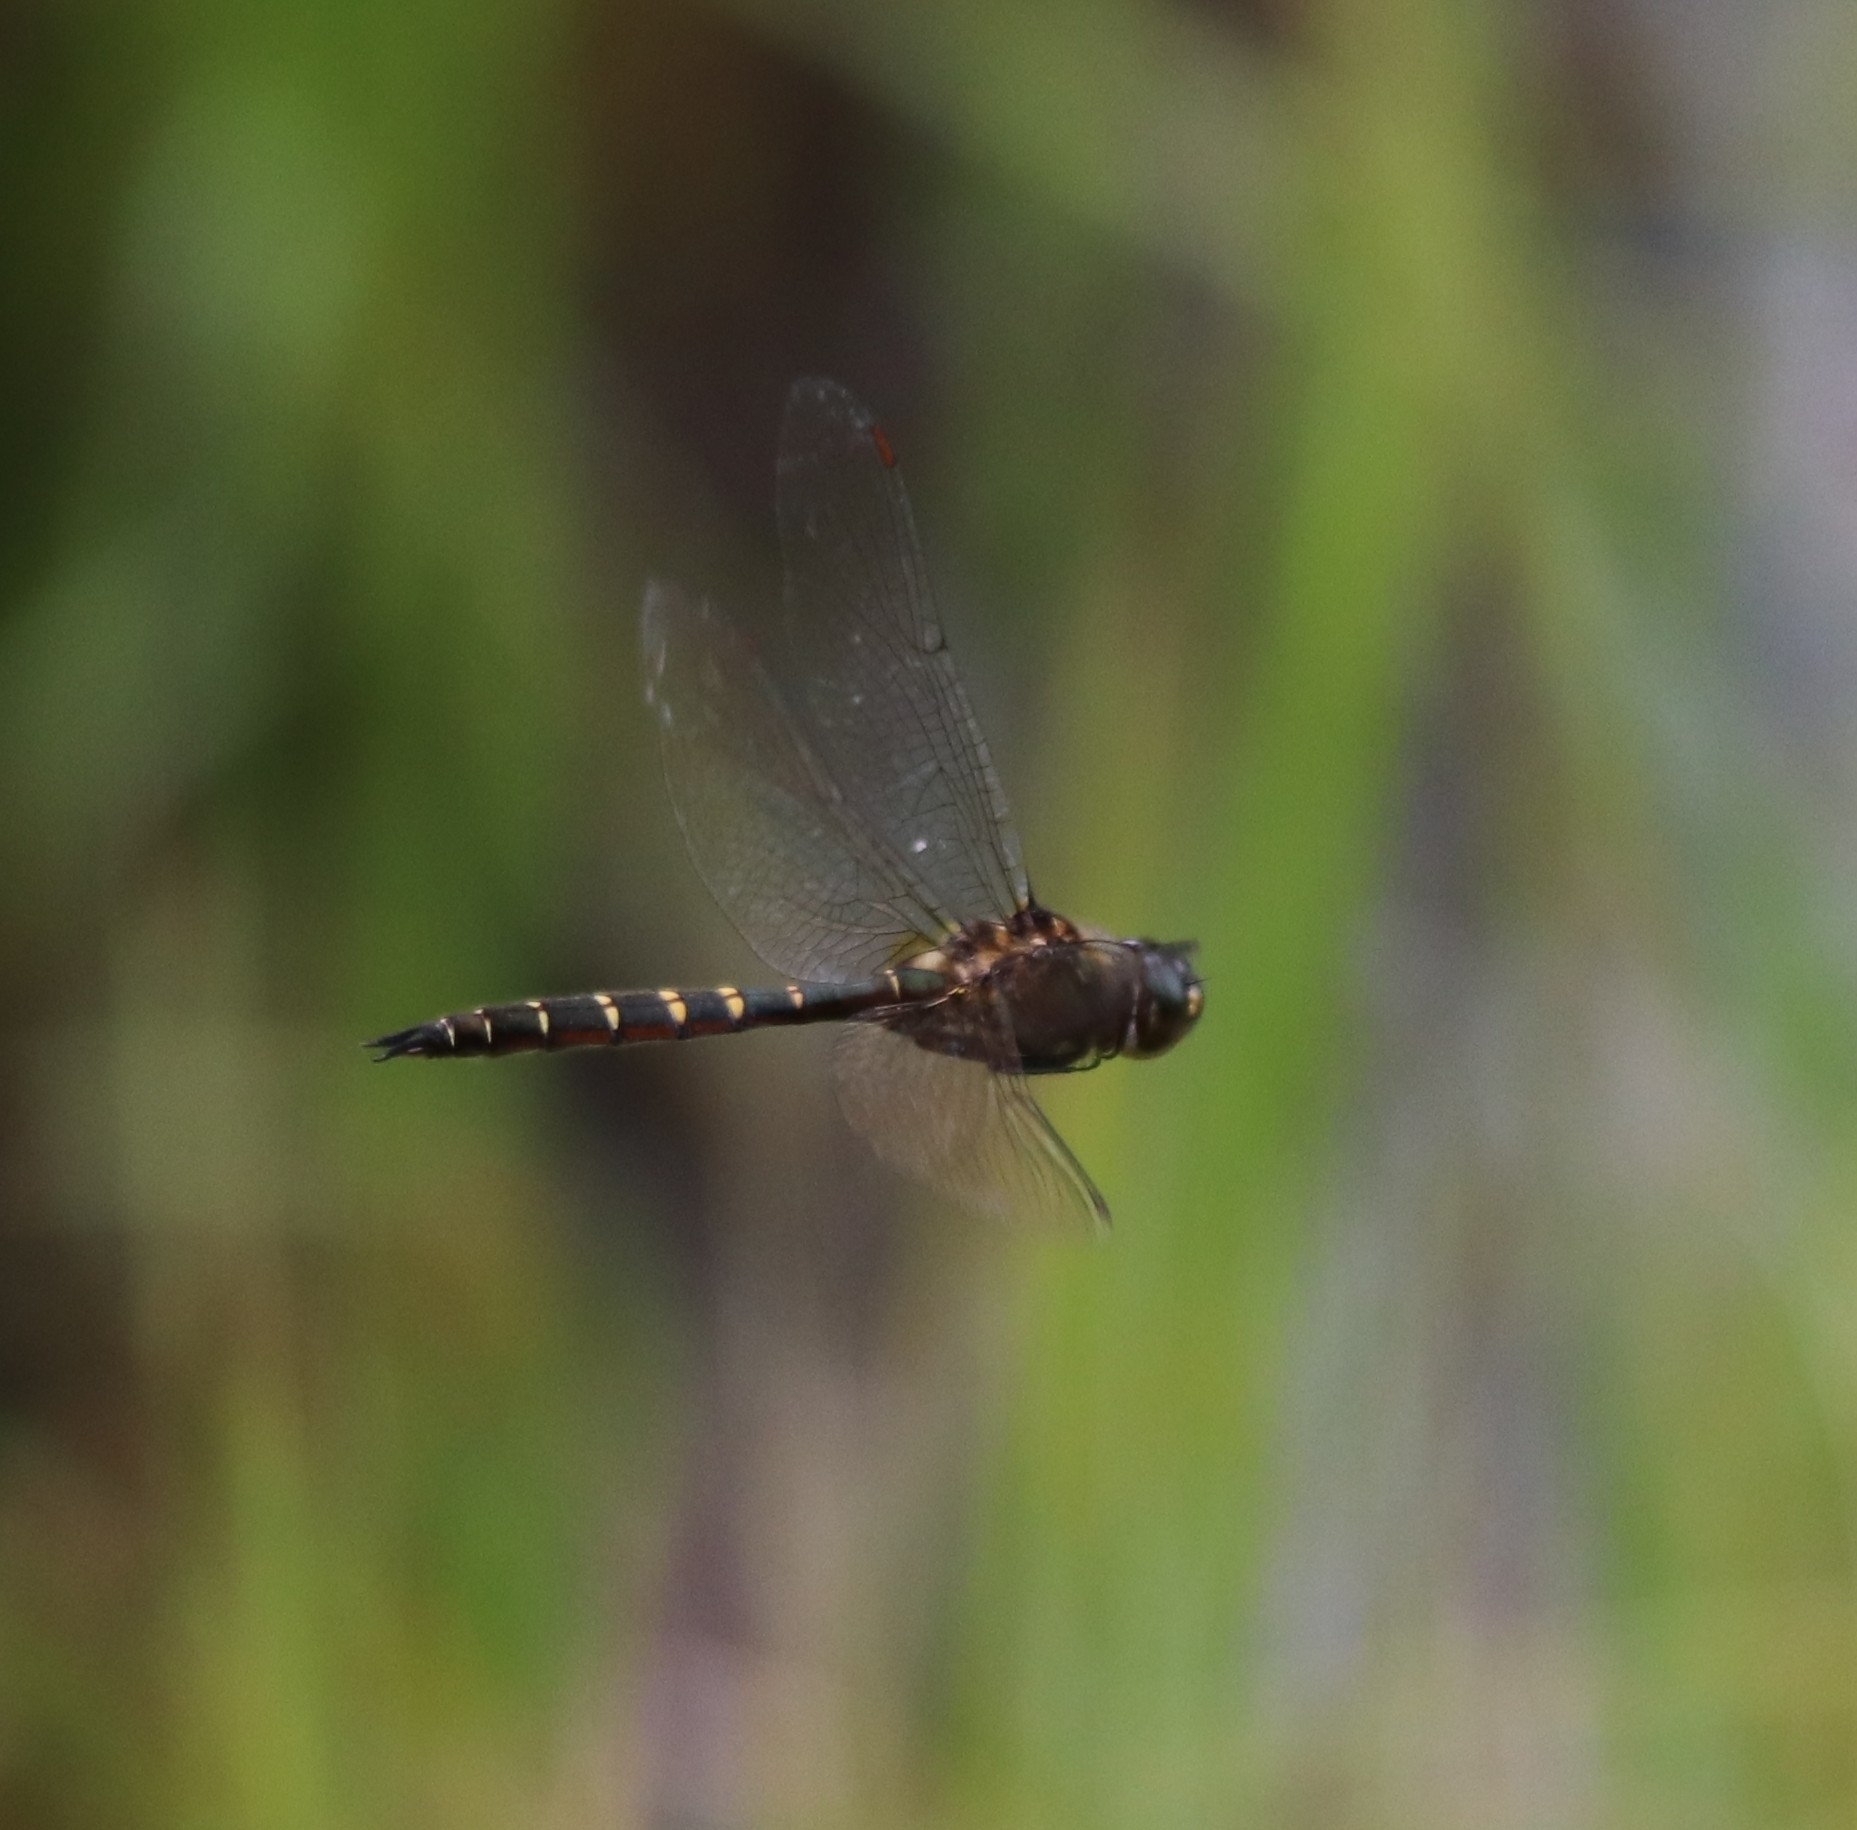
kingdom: Animalia
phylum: Arthropoda
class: Insecta
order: Odonata
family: Corduliidae
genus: Procordulia
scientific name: Procordulia smithii
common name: Ranger dragonfly
